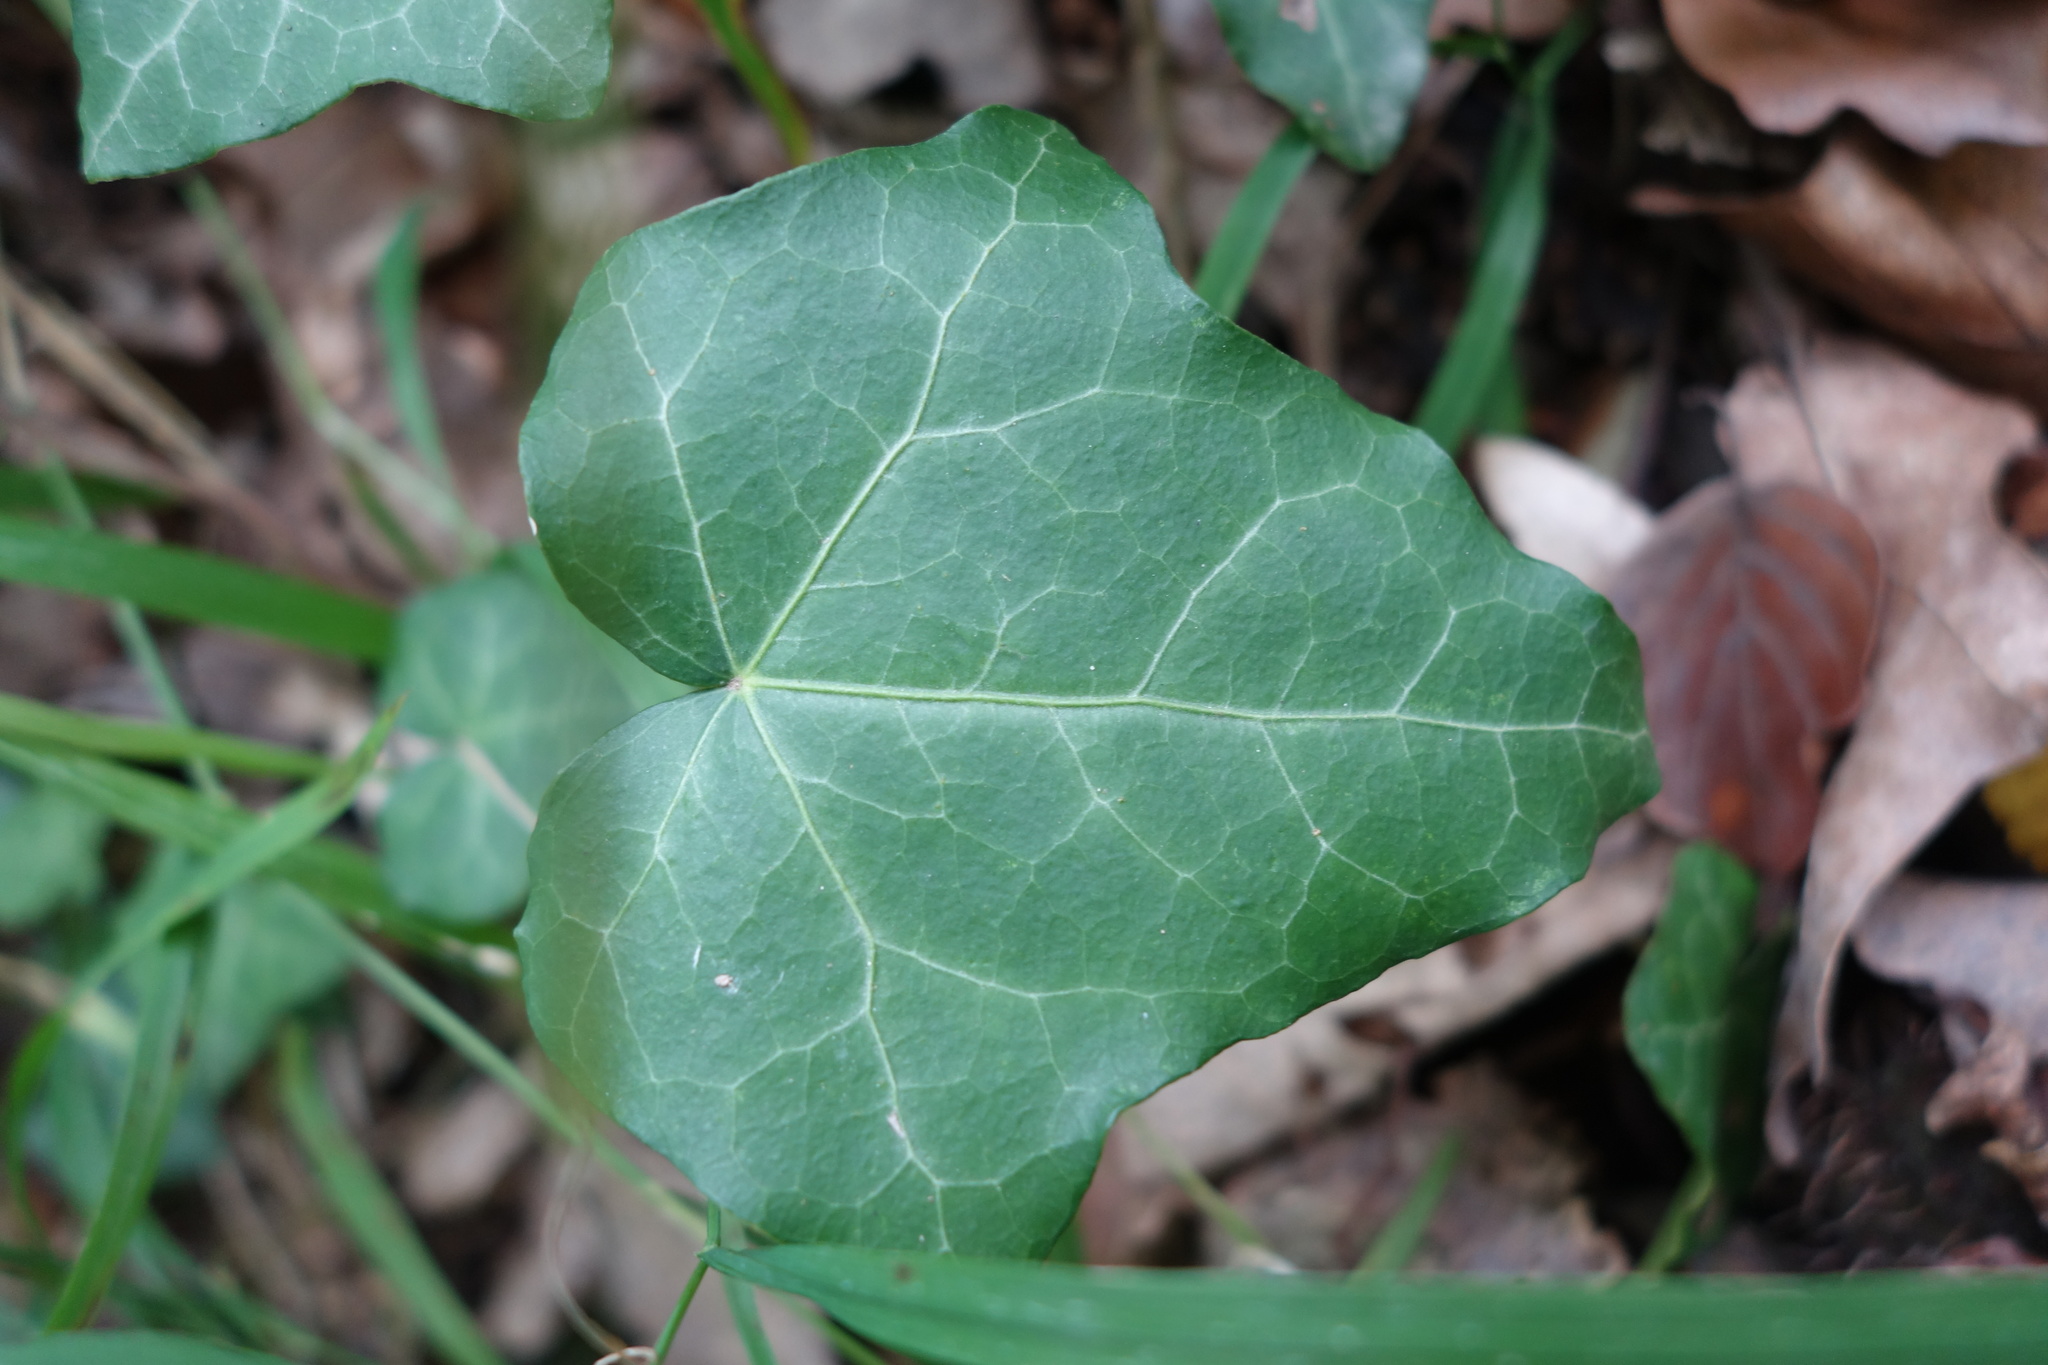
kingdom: Plantae
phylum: Tracheophyta
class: Magnoliopsida
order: Apiales
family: Araliaceae
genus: Hedera
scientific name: Hedera helix
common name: Ivy
